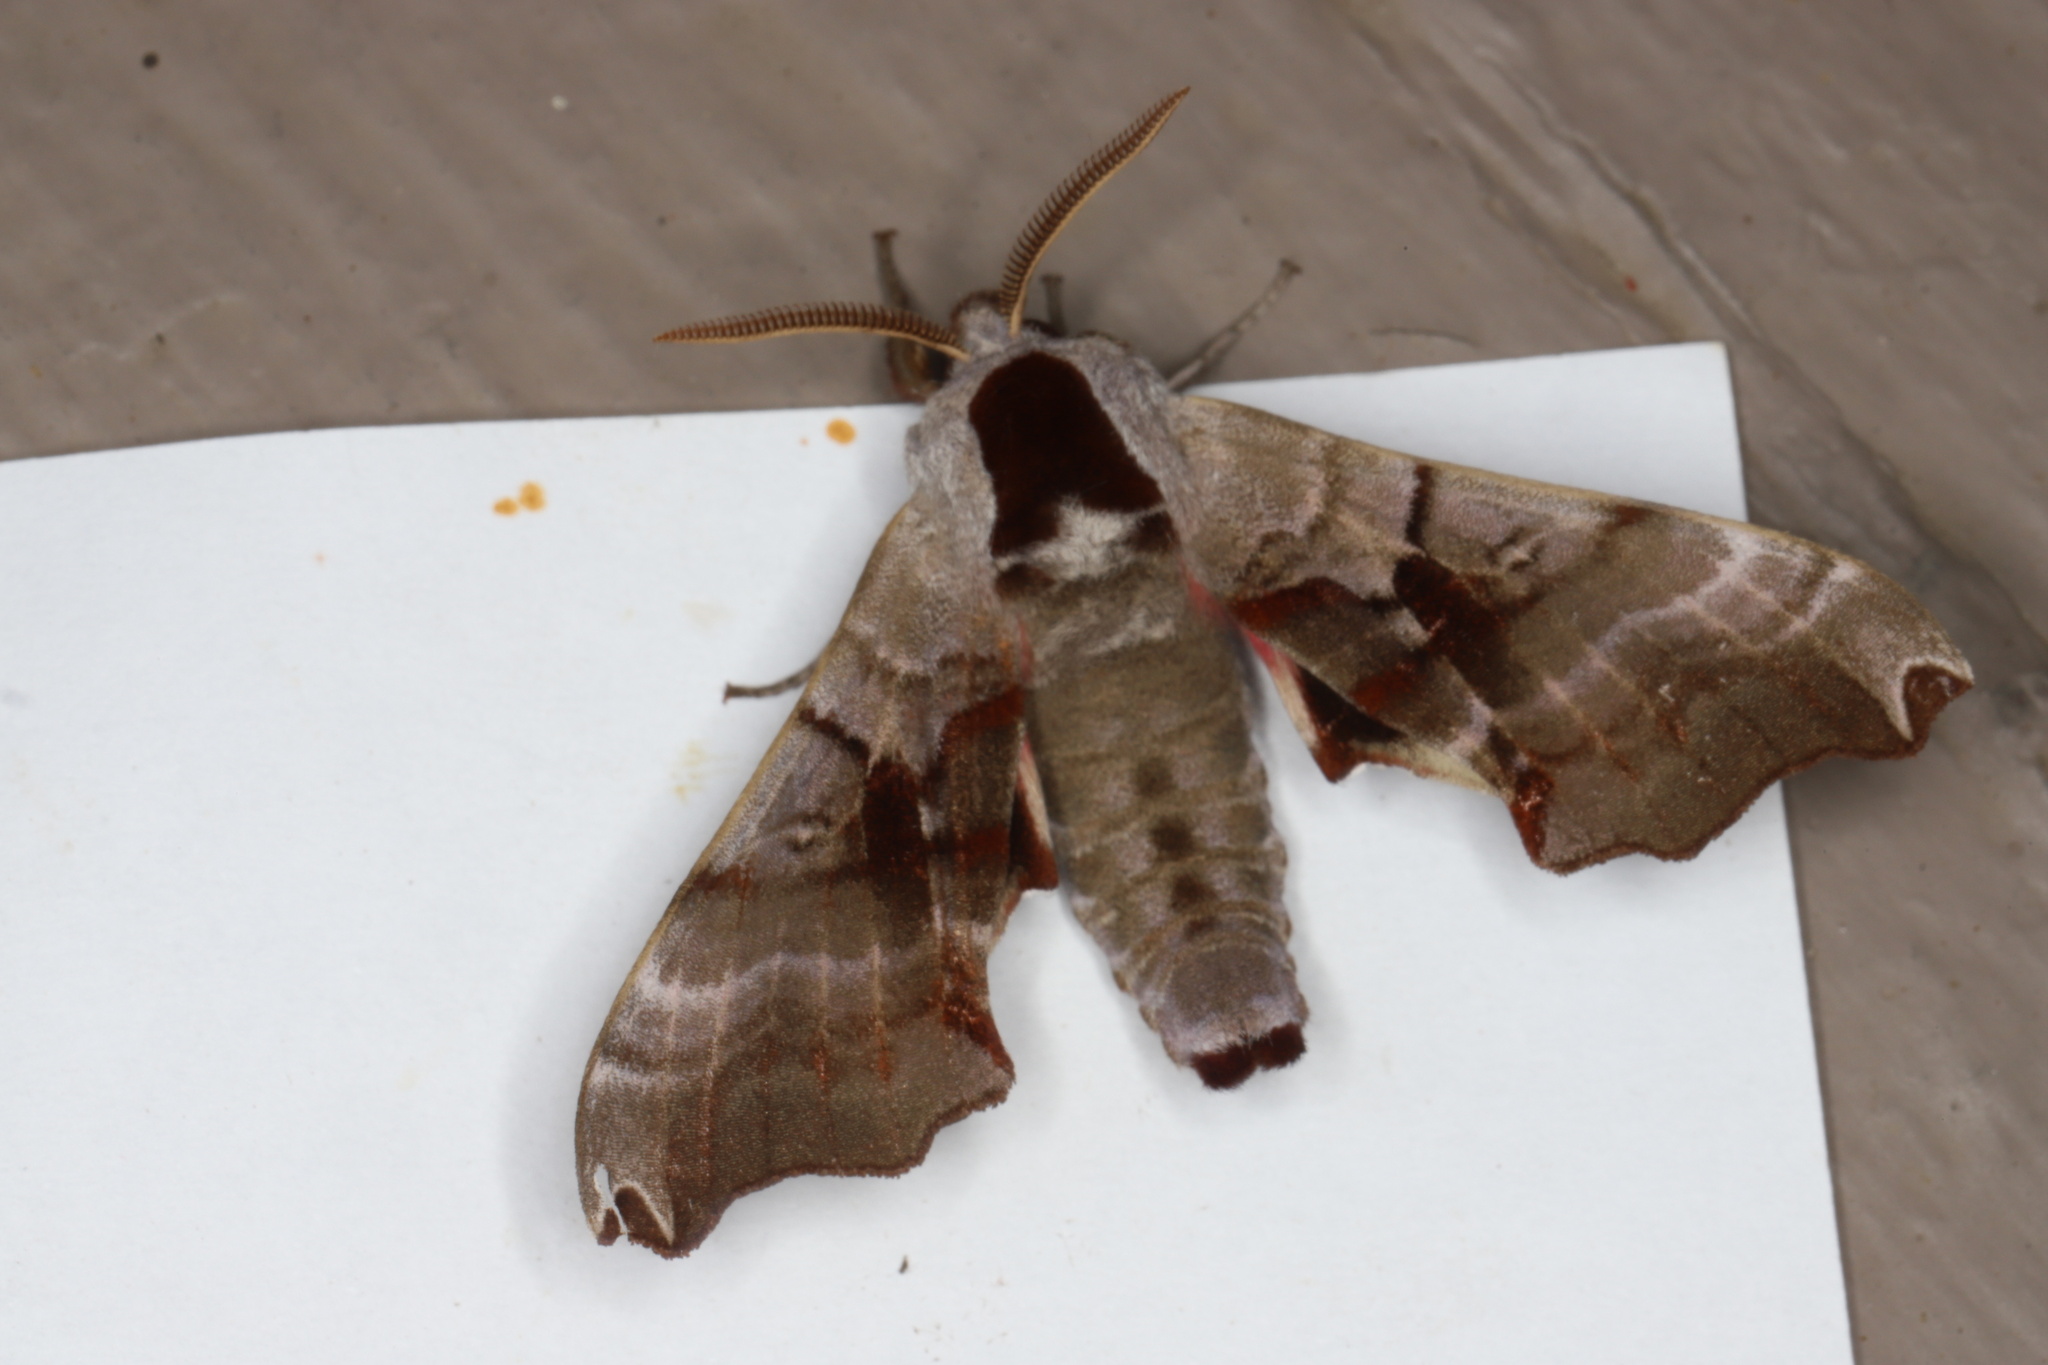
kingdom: Animalia
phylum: Arthropoda
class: Insecta
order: Lepidoptera
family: Sphingidae
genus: Smerinthus
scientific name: Smerinthus jamaicensis
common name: Twin spotted sphinx
